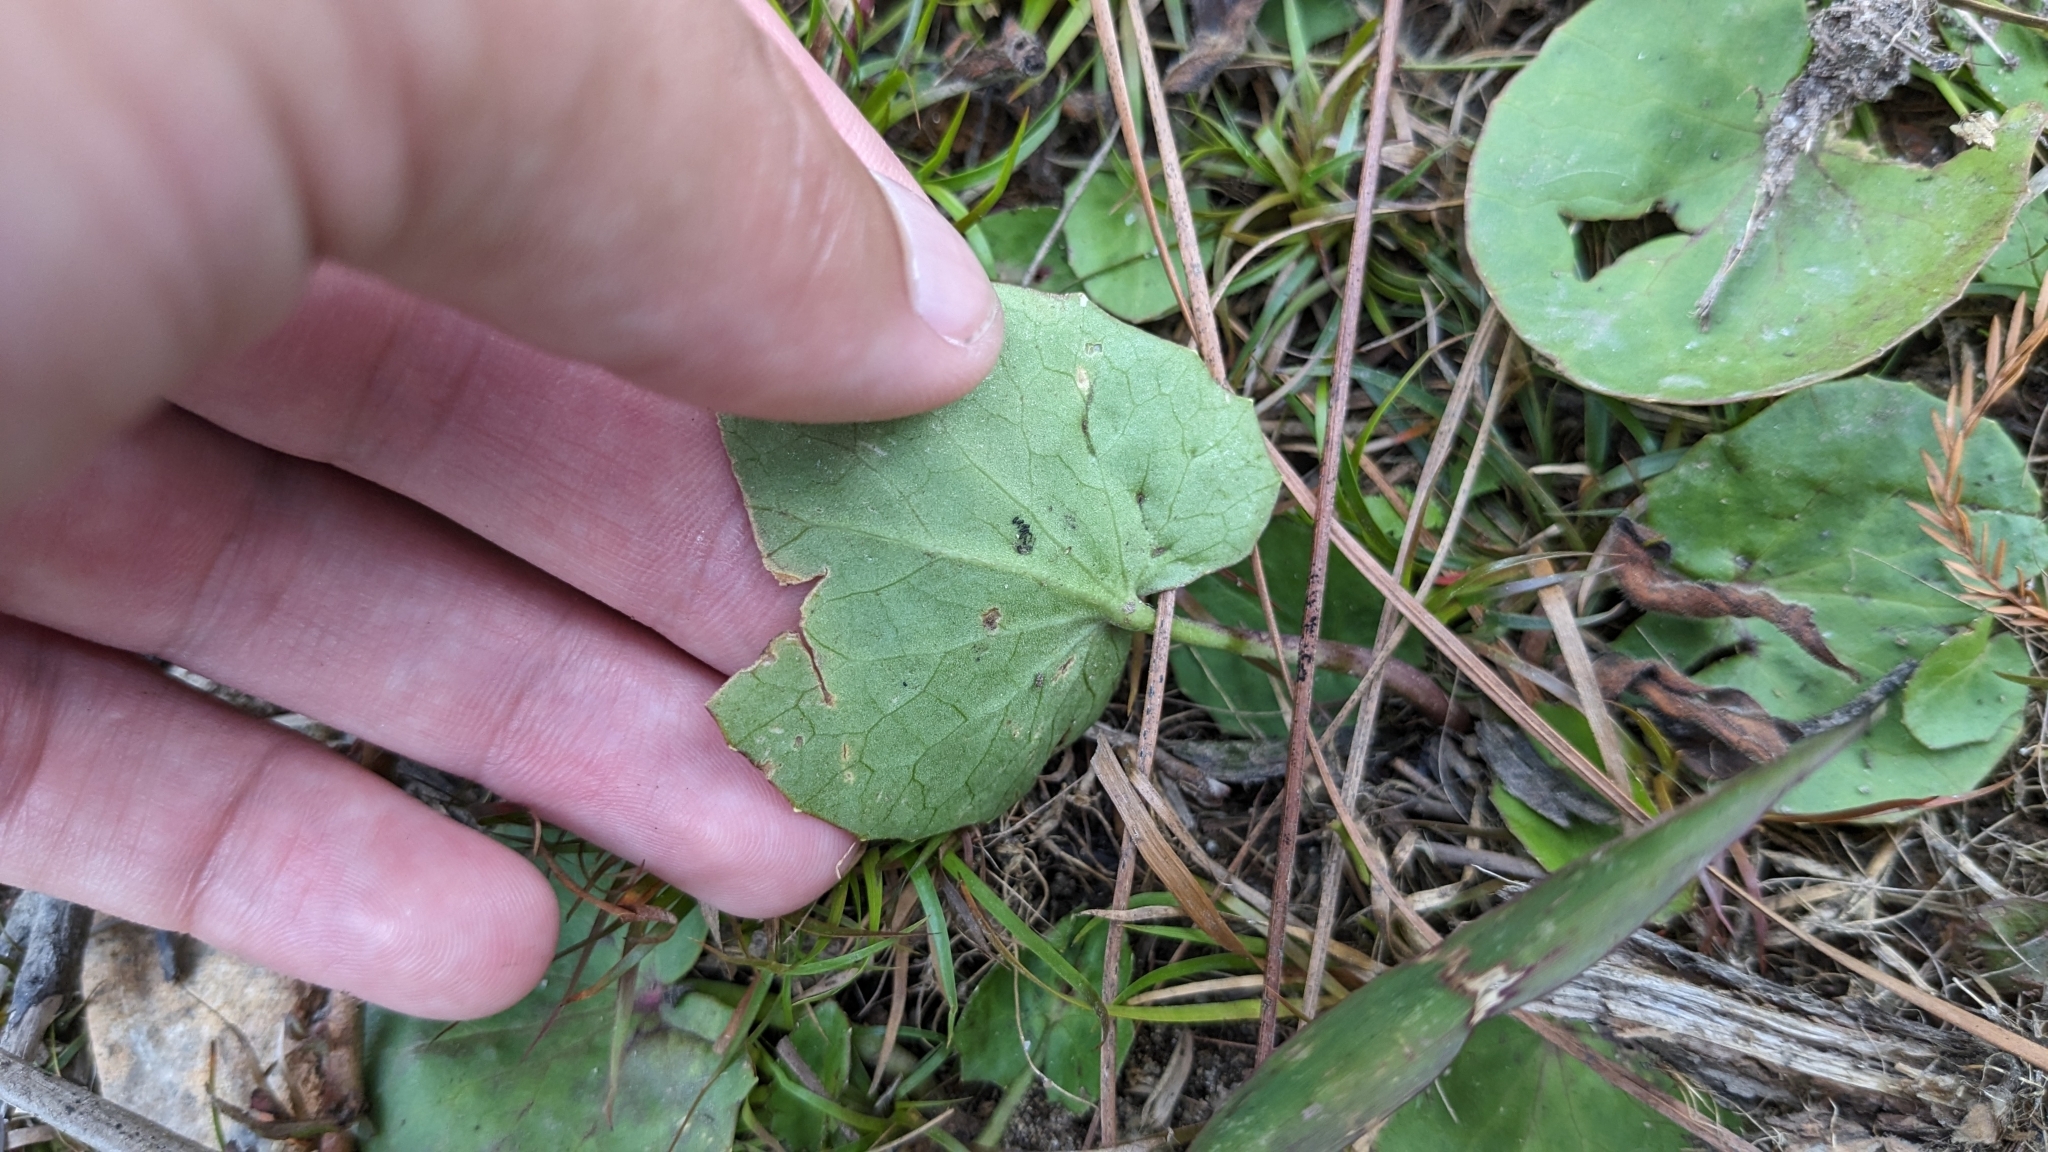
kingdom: Plantae
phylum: Tracheophyta
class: Magnoliopsida
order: Apiales
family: Apiaceae
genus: Centella
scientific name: Centella erecta
